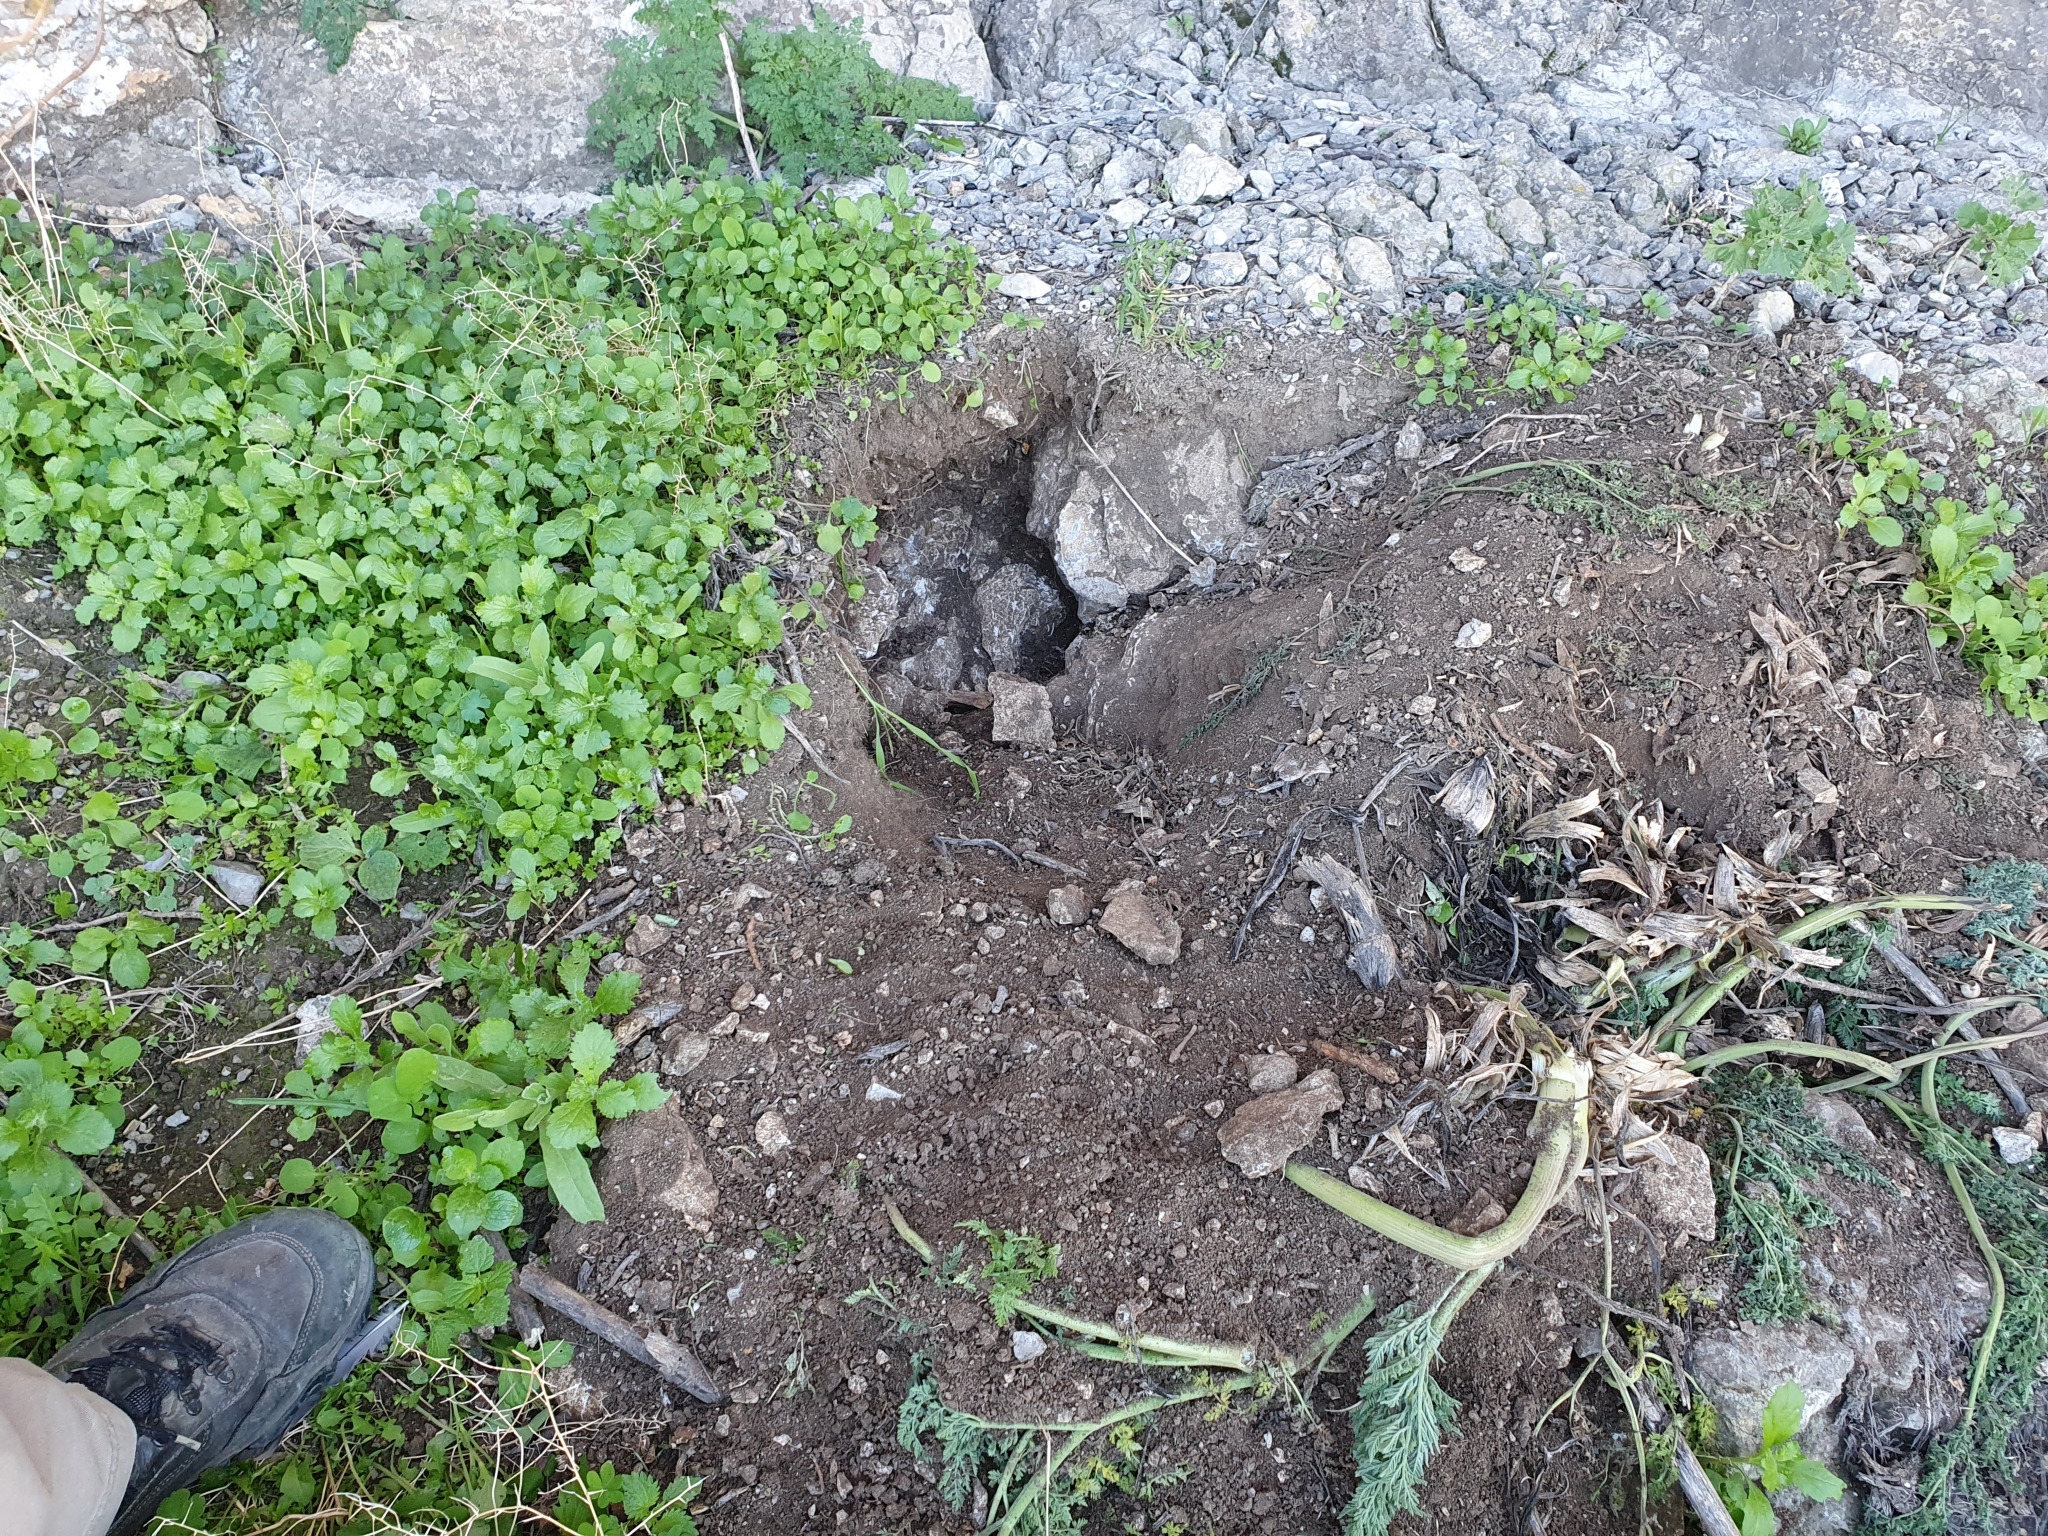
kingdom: Animalia
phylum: Chordata
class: Mammalia
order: Rodentia
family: Hystricidae
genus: Hystrix
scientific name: Hystrix cristata
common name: Crested porcupine
